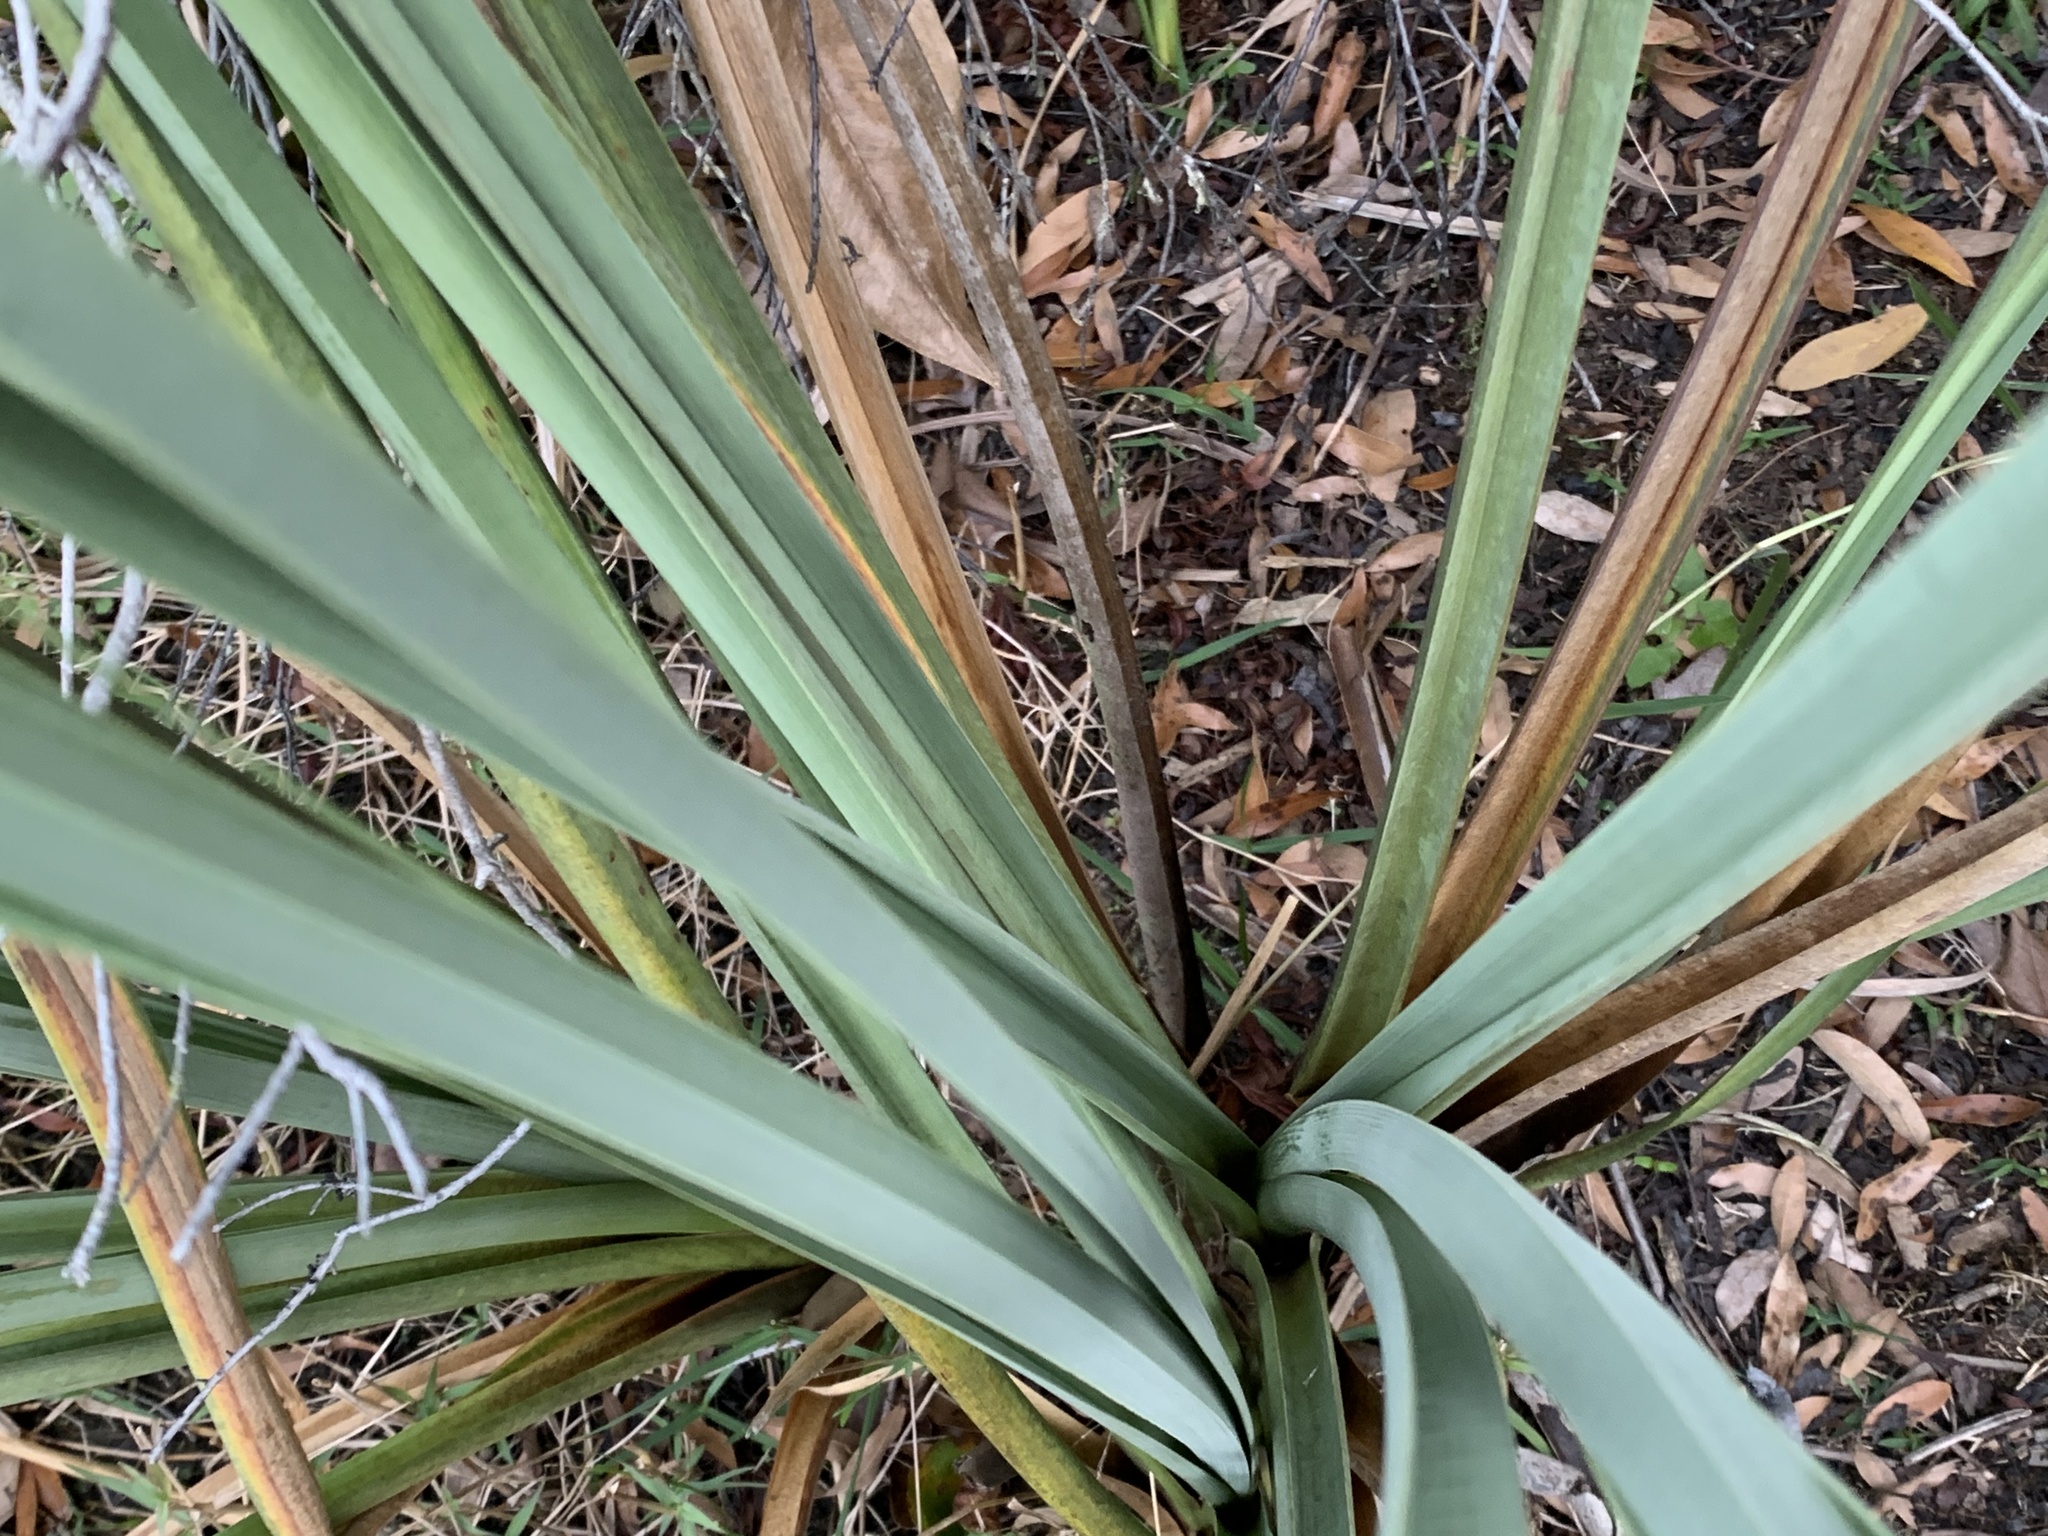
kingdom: Plantae
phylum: Tracheophyta
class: Liliopsida
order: Poales
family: Cyperaceae
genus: Cladium
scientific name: Cladium mariscus
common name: Great fen-sedge
